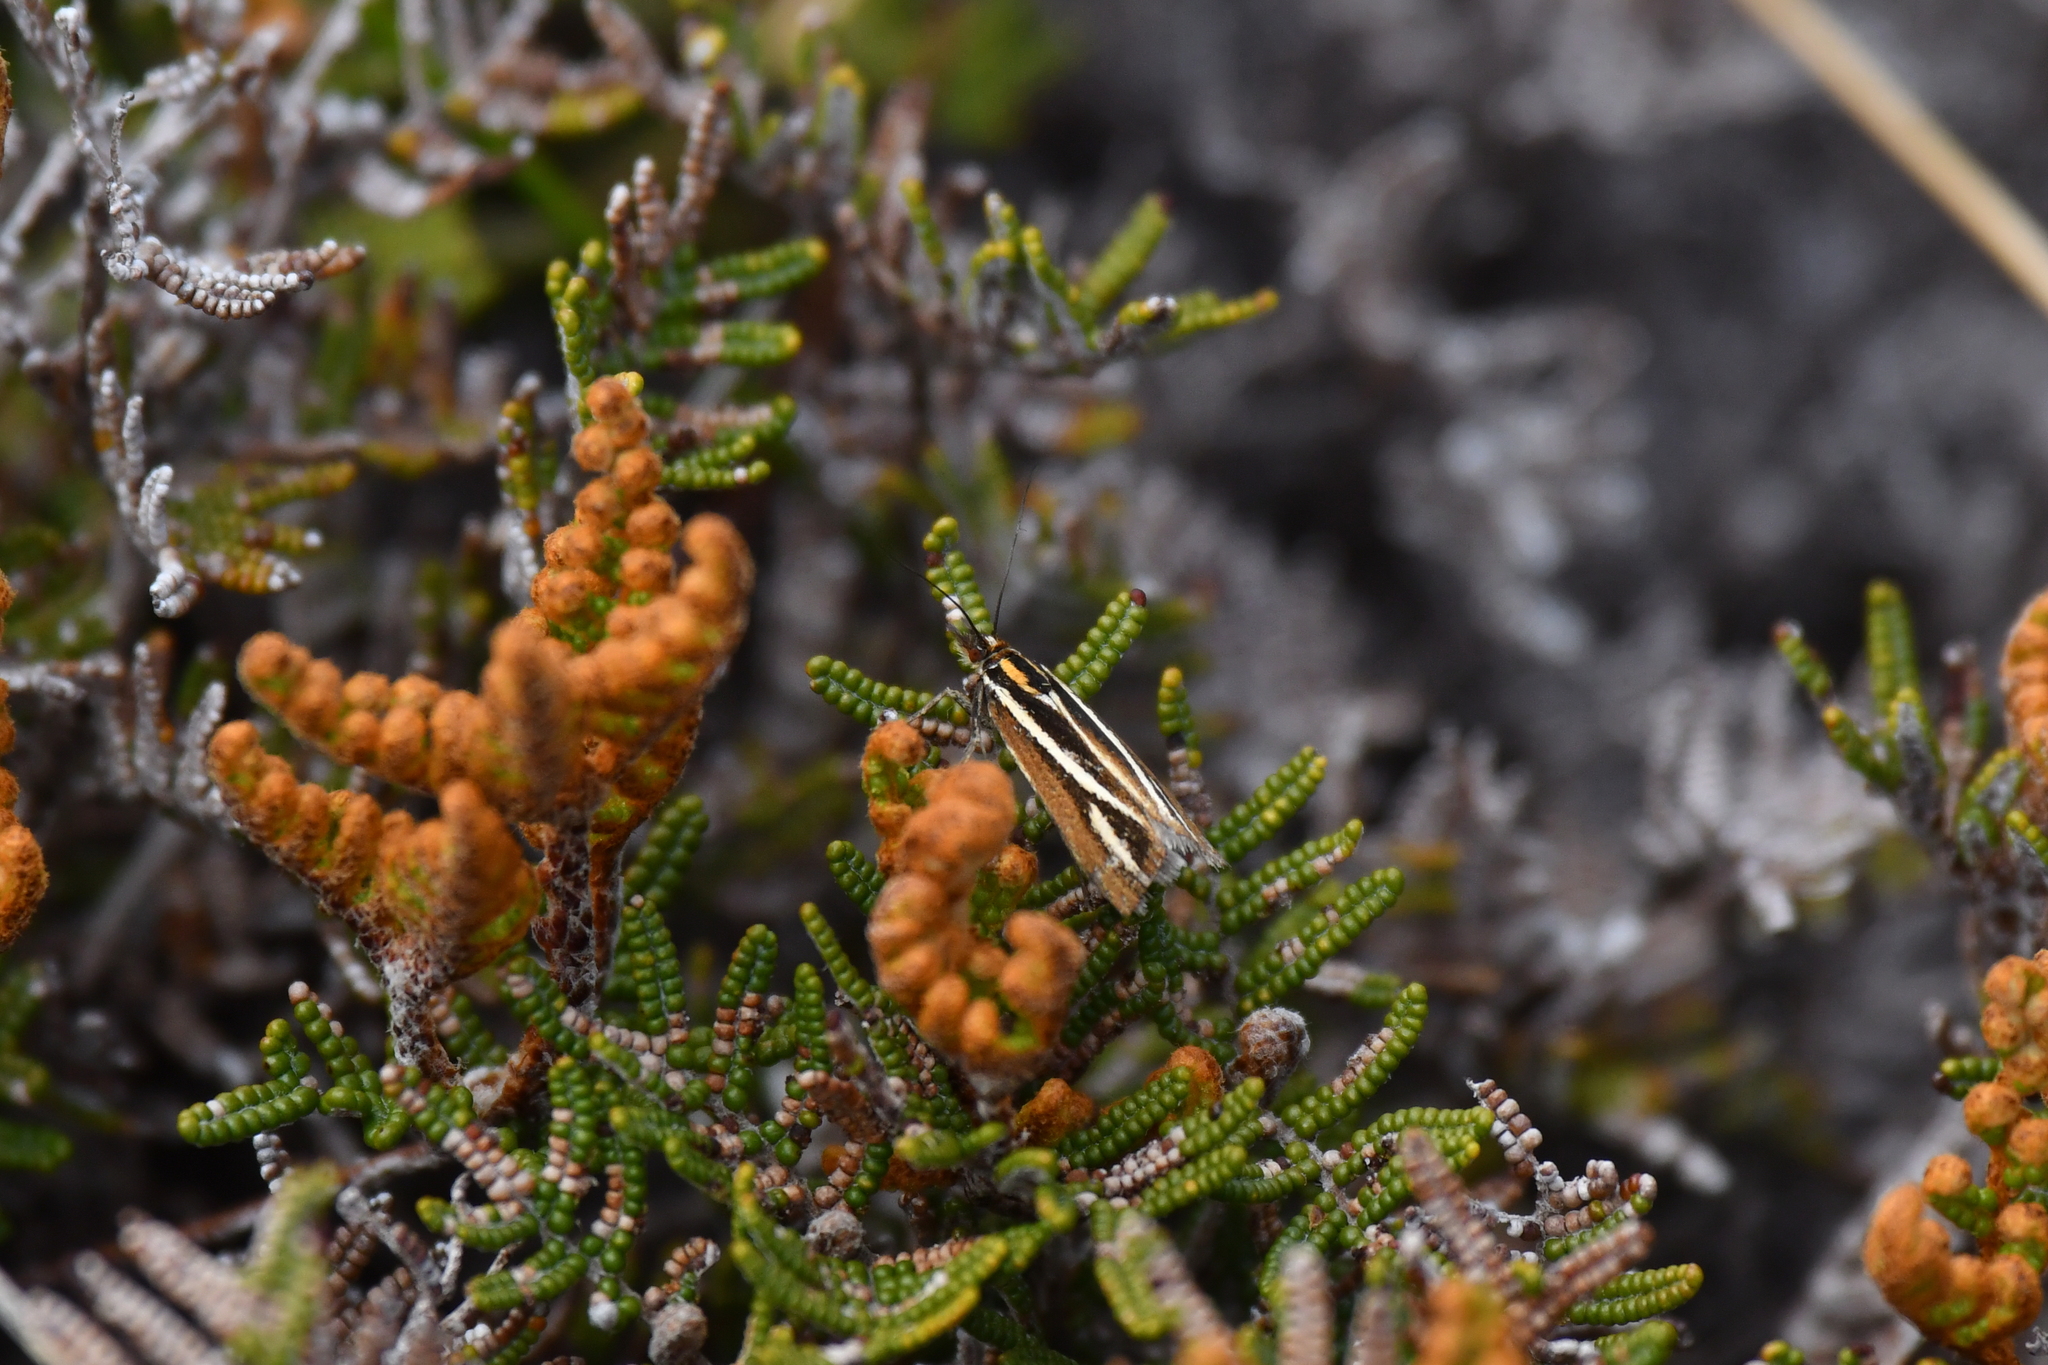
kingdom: Animalia
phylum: Arthropoda
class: Insecta
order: Lepidoptera
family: Crambidae
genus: Orocrambus
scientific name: Orocrambus thymiastes
